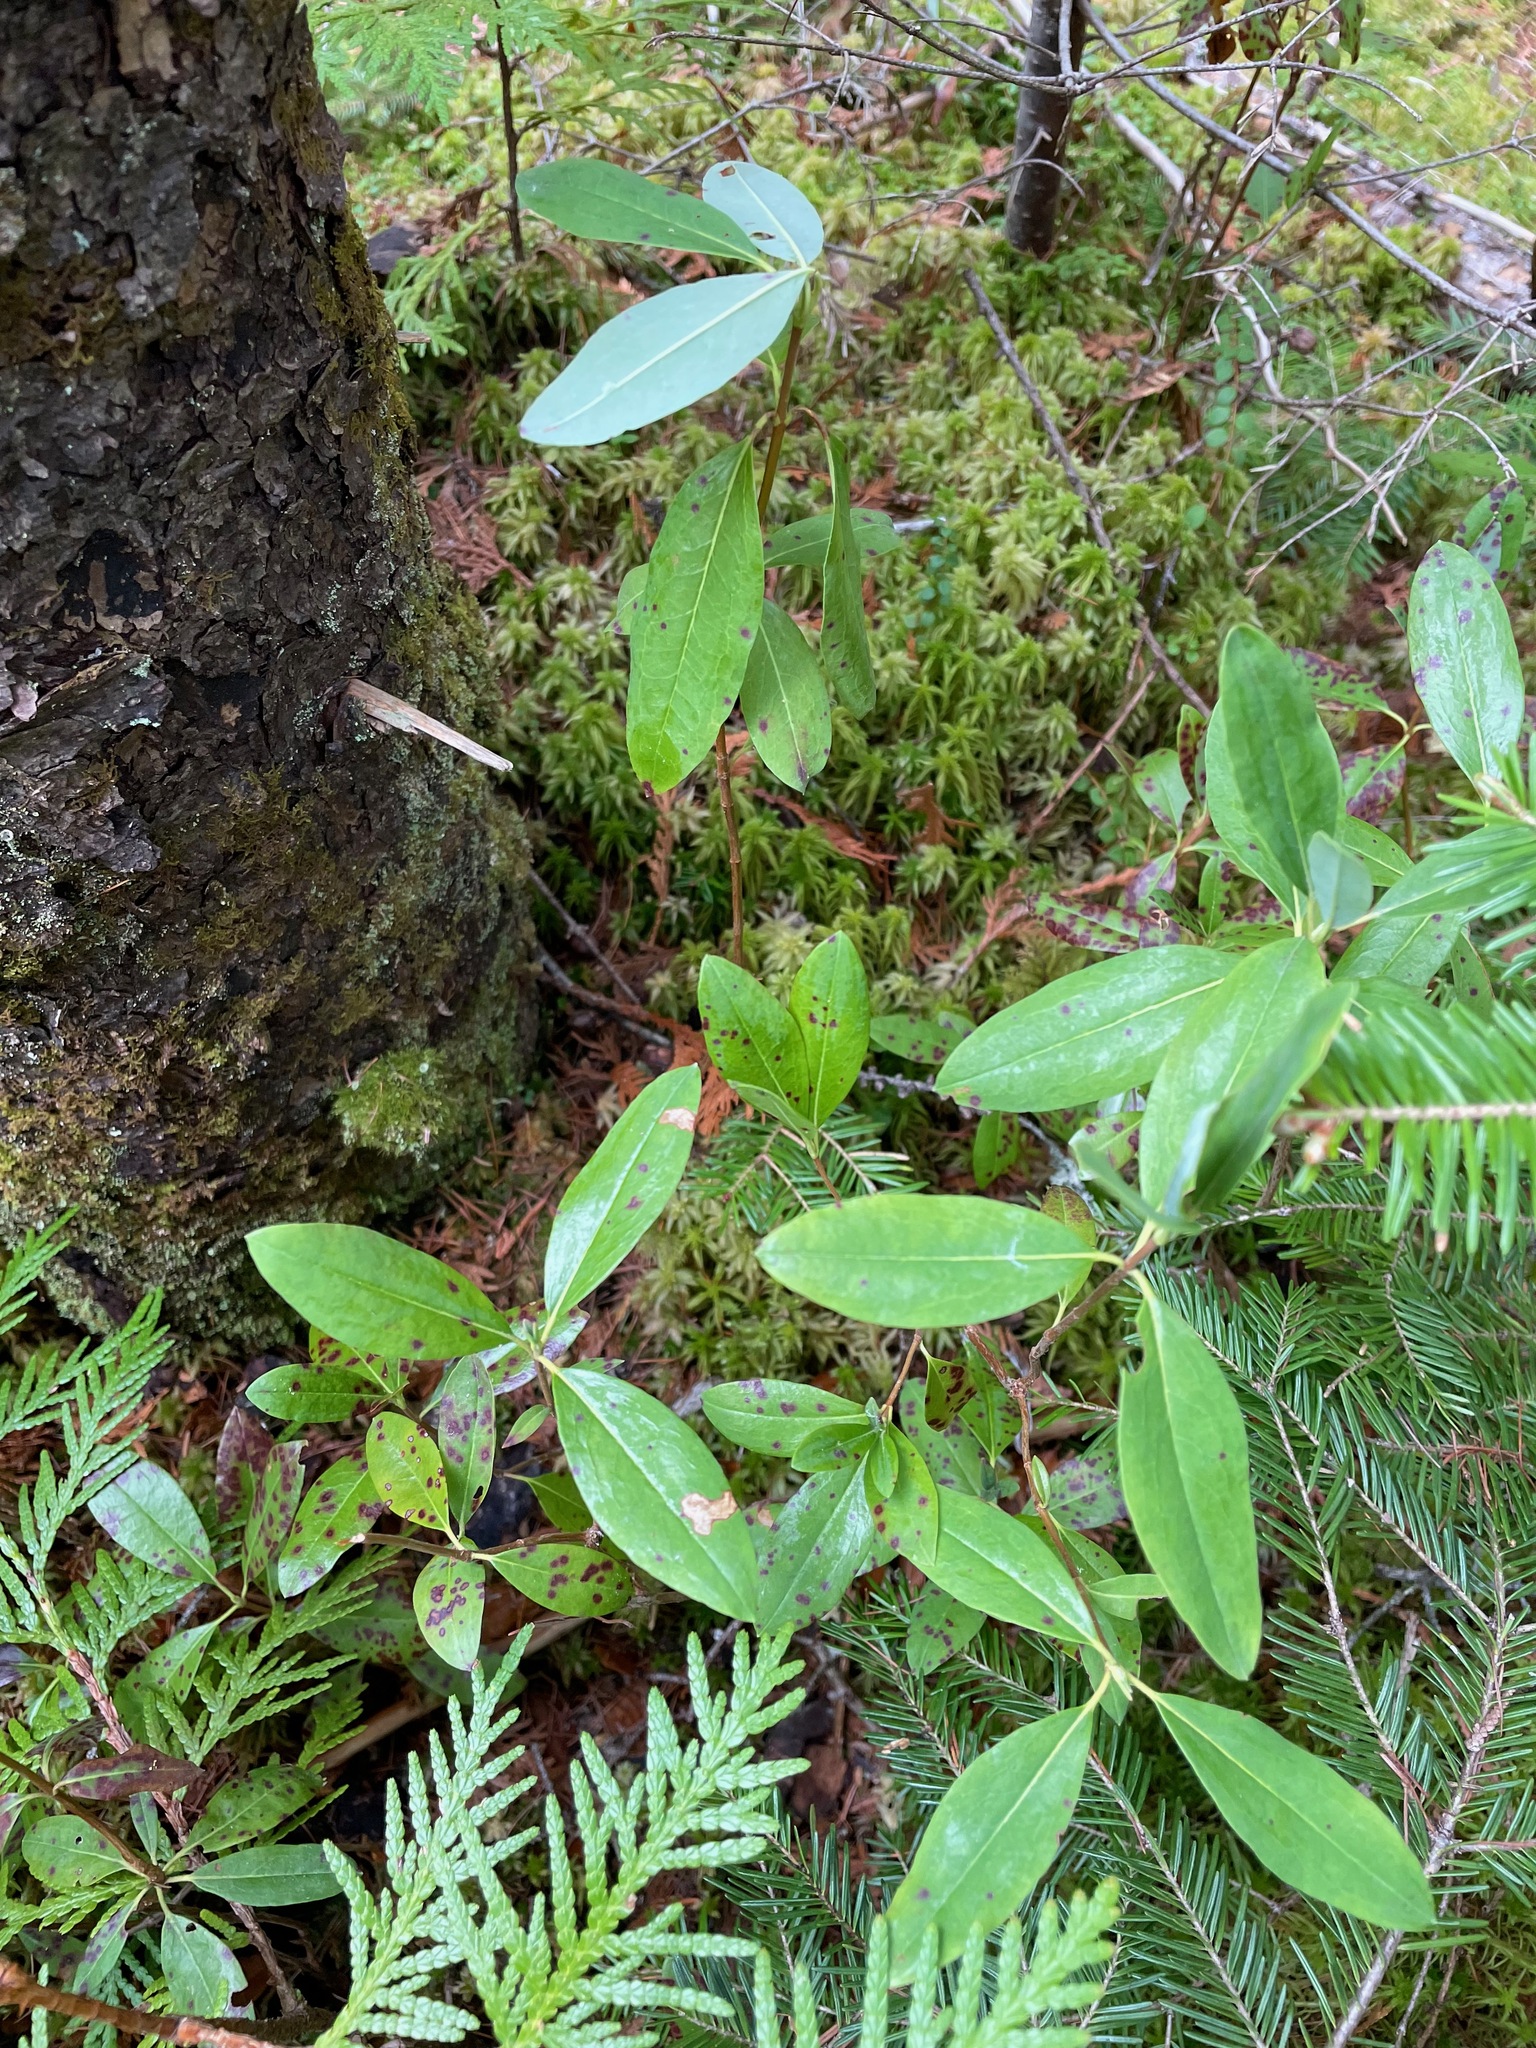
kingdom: Plantae
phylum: Tracheophyta
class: Magnoliopsida
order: Ericales
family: Ericaceae
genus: Kalmia
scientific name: Kalmia angustifolia
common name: Sheep-laurel
